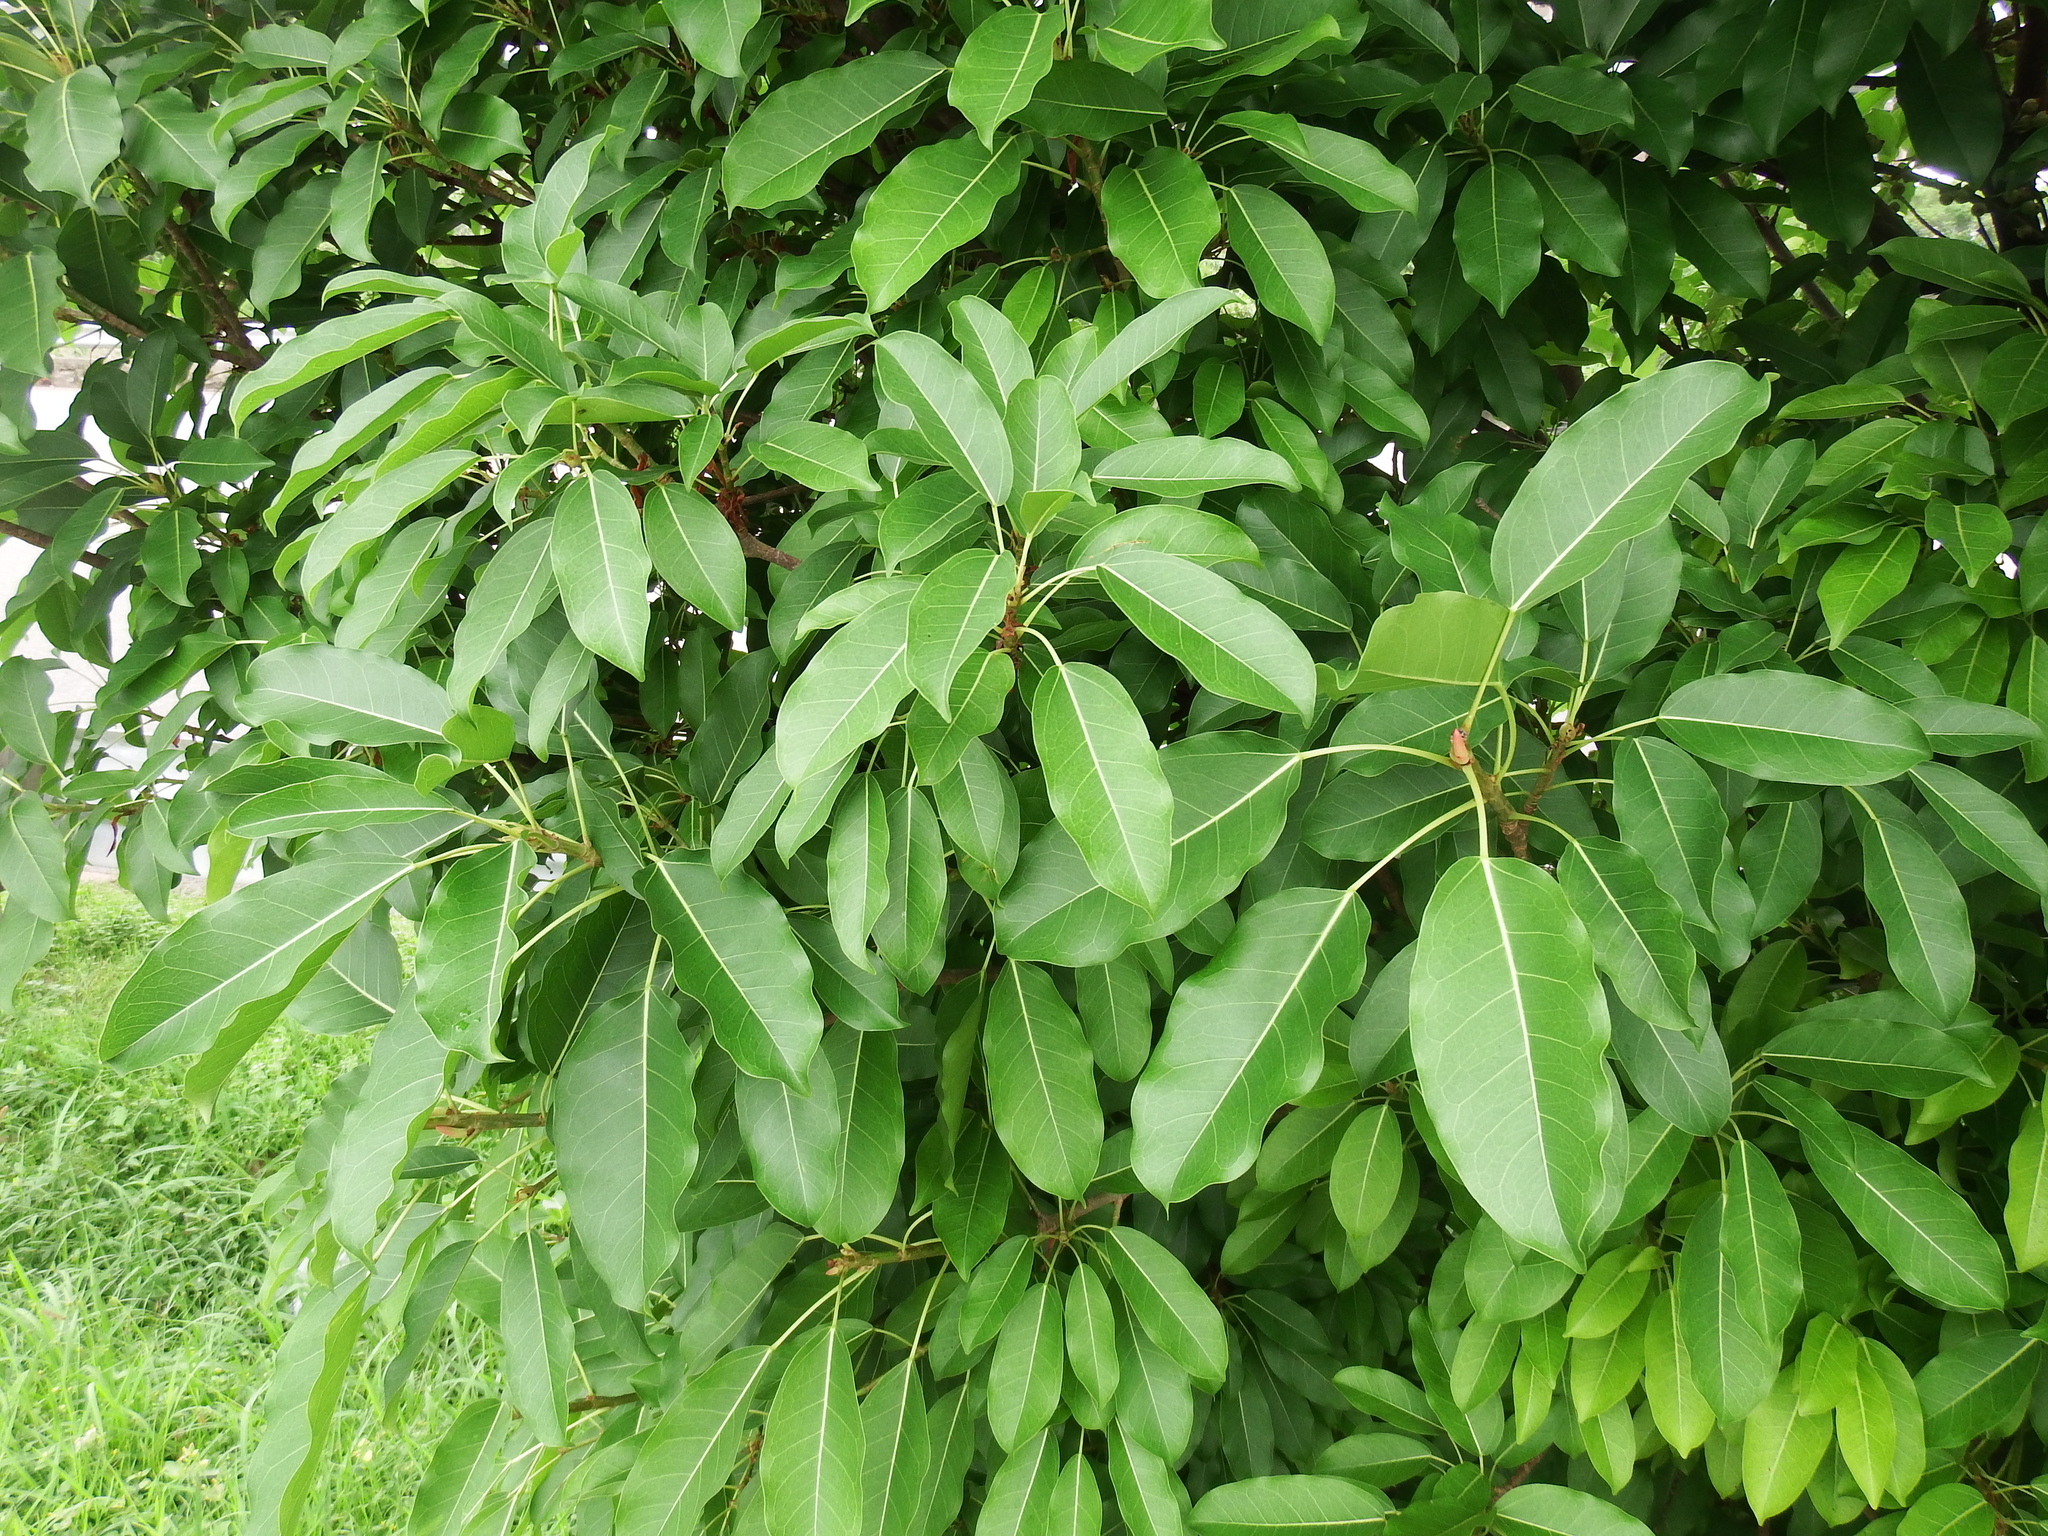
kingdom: Plantae
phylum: Tracheophyta
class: Magnoliopsida
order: Rosales
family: Moraceae
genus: Ficus
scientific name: Ficus subpisocarpa
